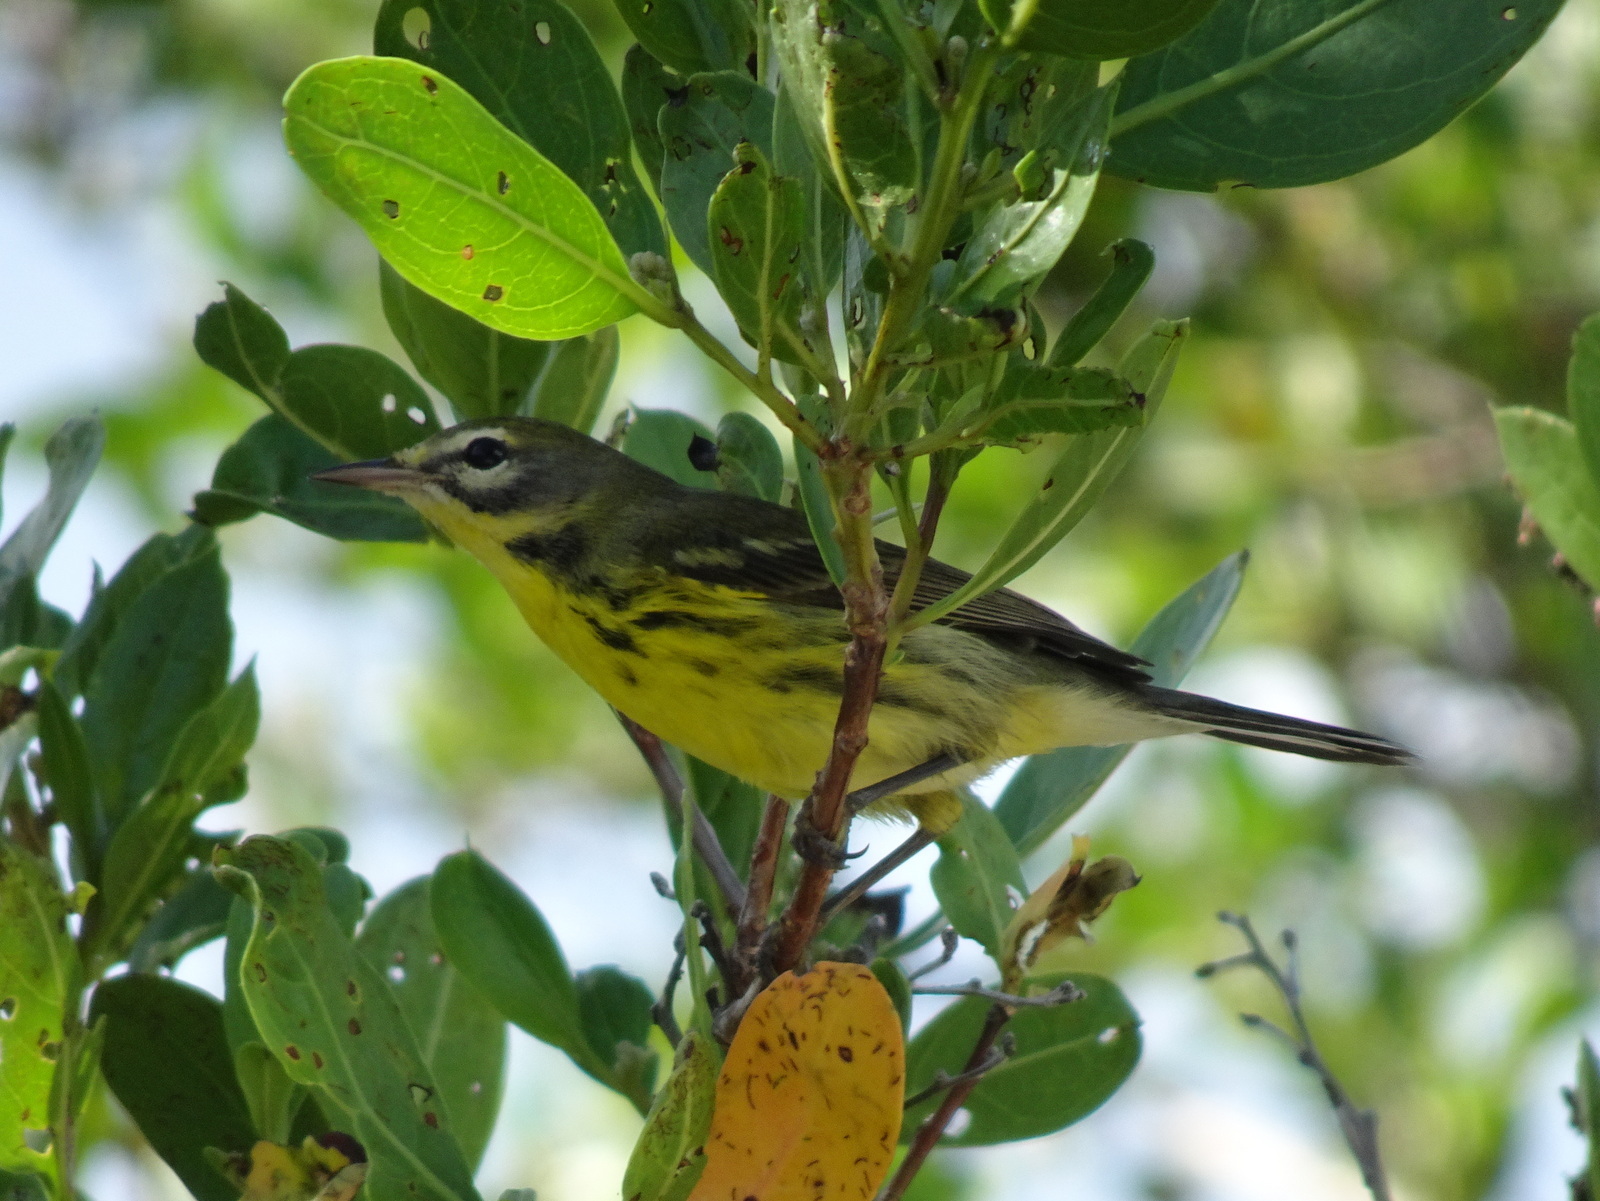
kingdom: Animalia
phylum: Chordata
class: Aves
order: Passeriformes
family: Parulidae
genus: Setophaga
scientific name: Setophaga discolor
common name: Prairie warbler
